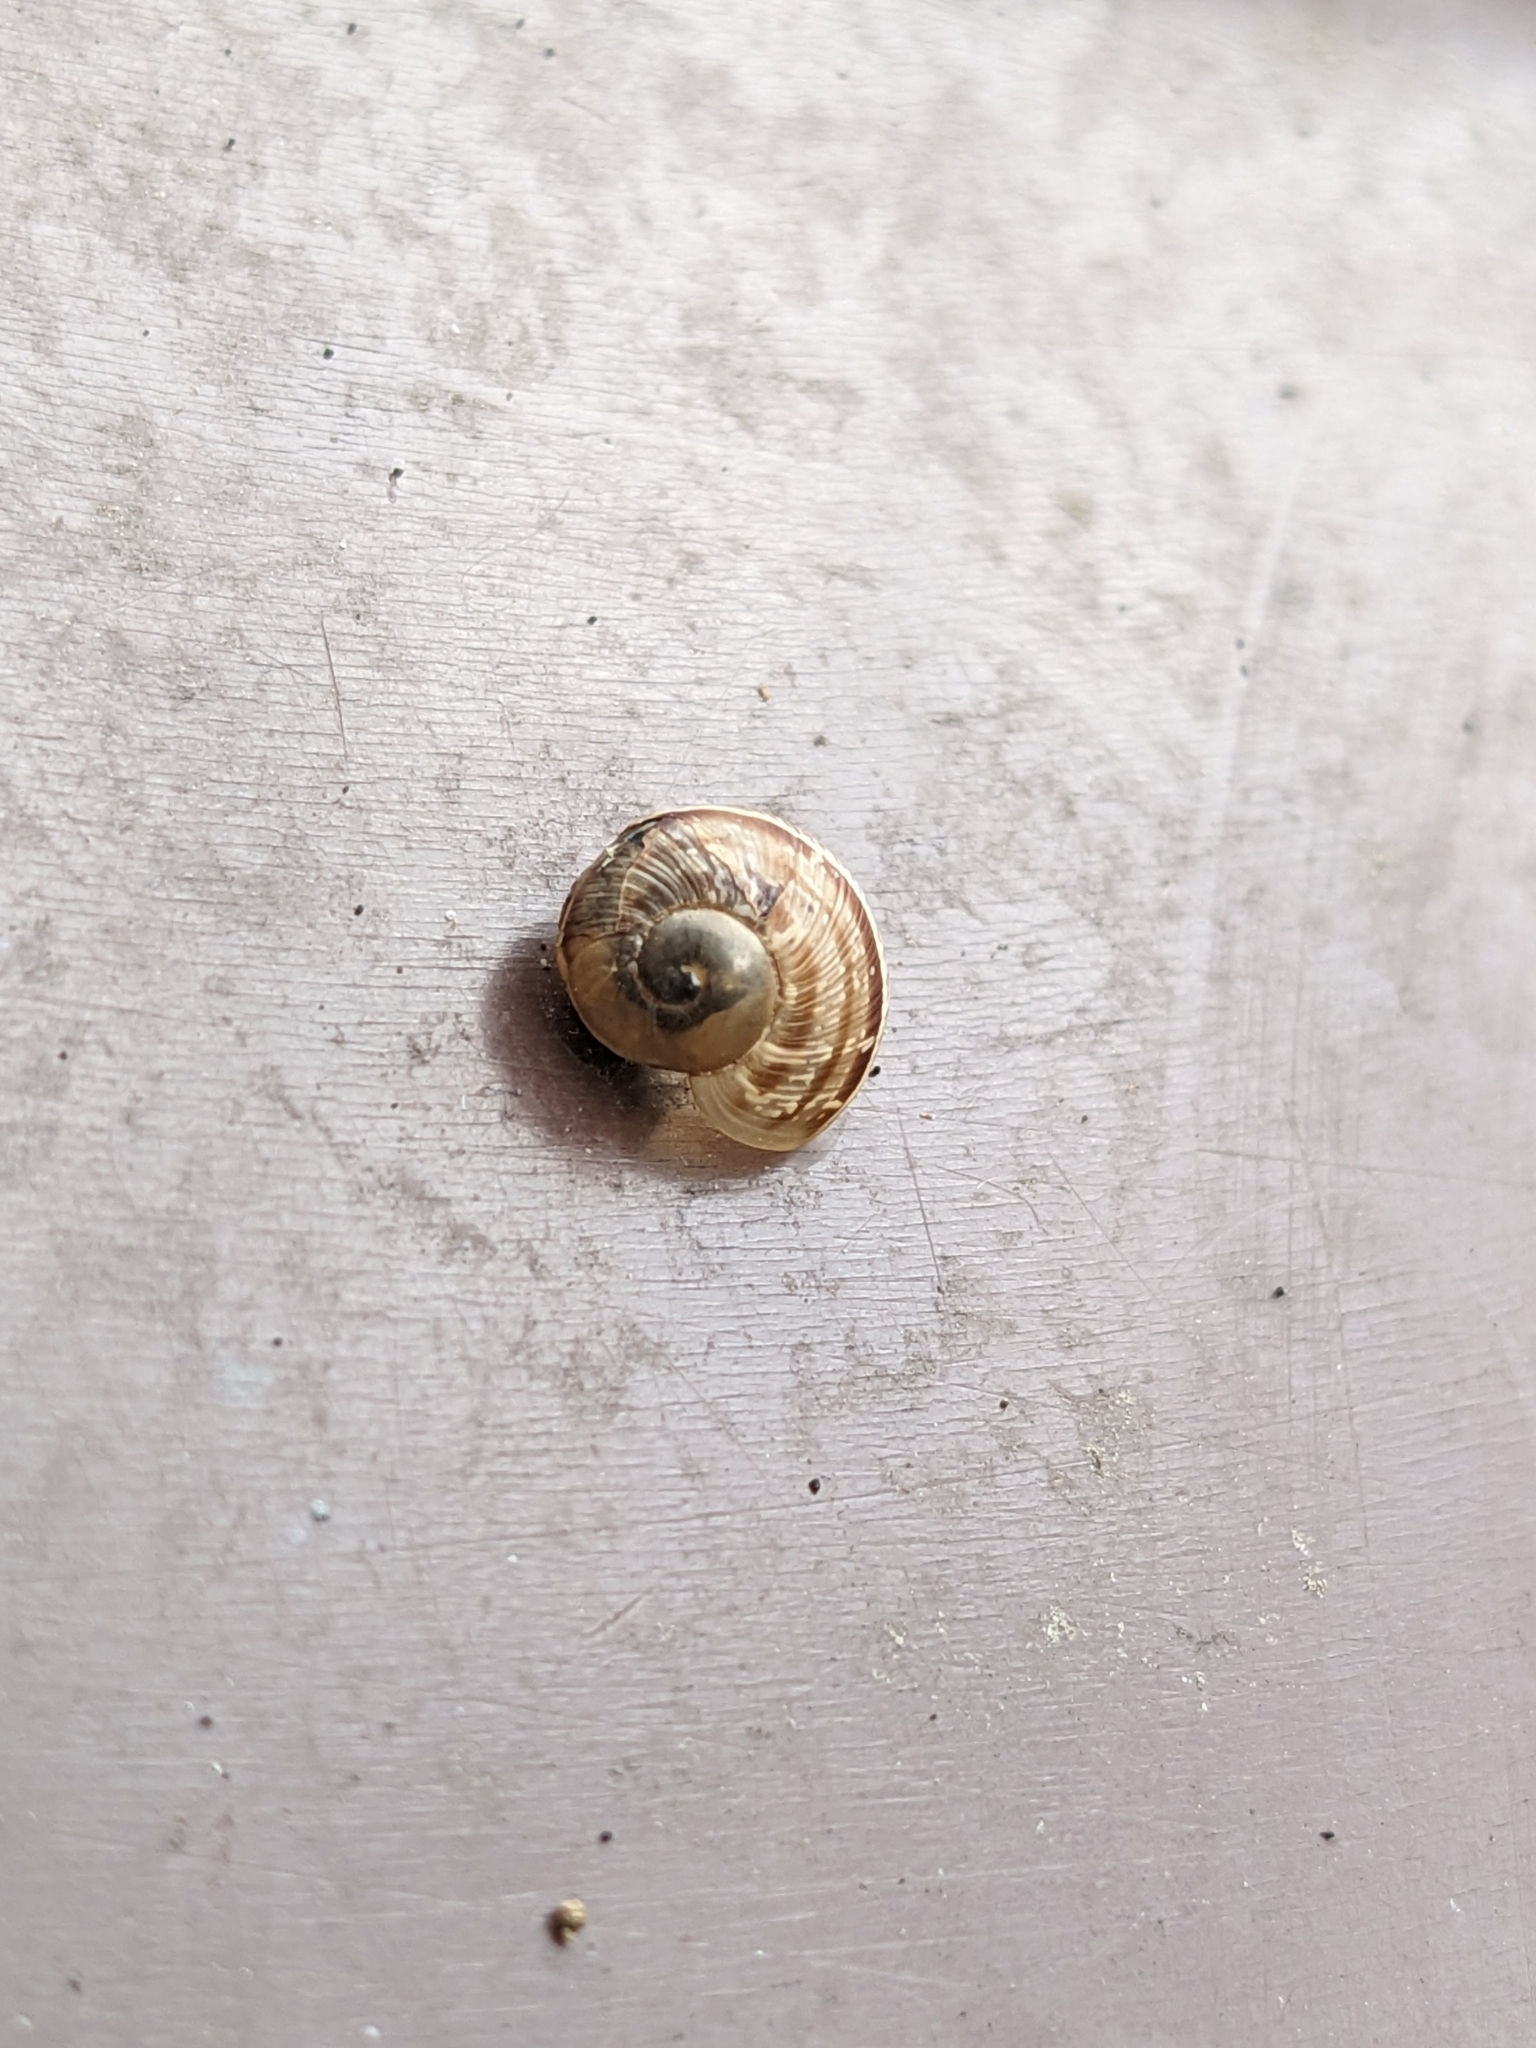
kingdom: Animalia
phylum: Mollusca
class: Gastropoda
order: Stylommatophora
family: Helicidae
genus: Cornu
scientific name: Cornu aspersum
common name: Brown garden snail
